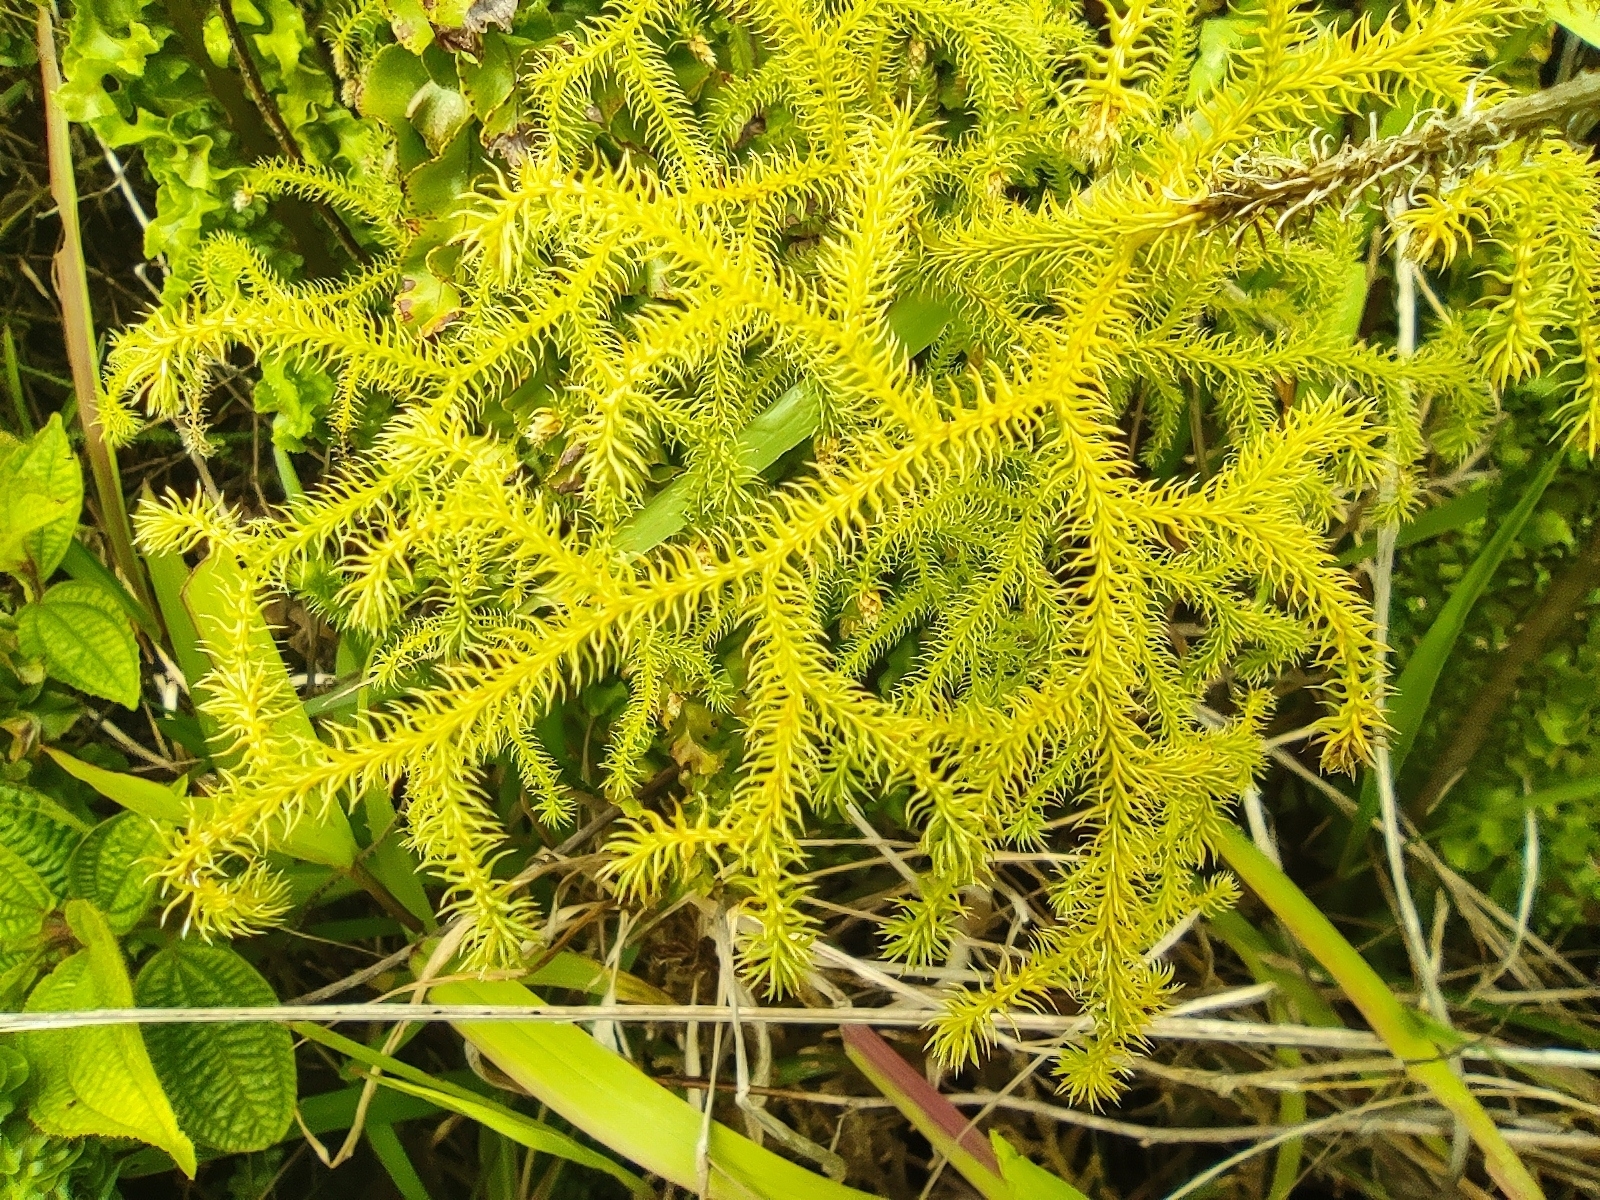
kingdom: Plantae
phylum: Tracheophyta
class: Lycopodiopsida
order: Lycopodiales
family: Lycopodiaceae
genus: Palhinhaea
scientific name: Palhinhaea cernua
